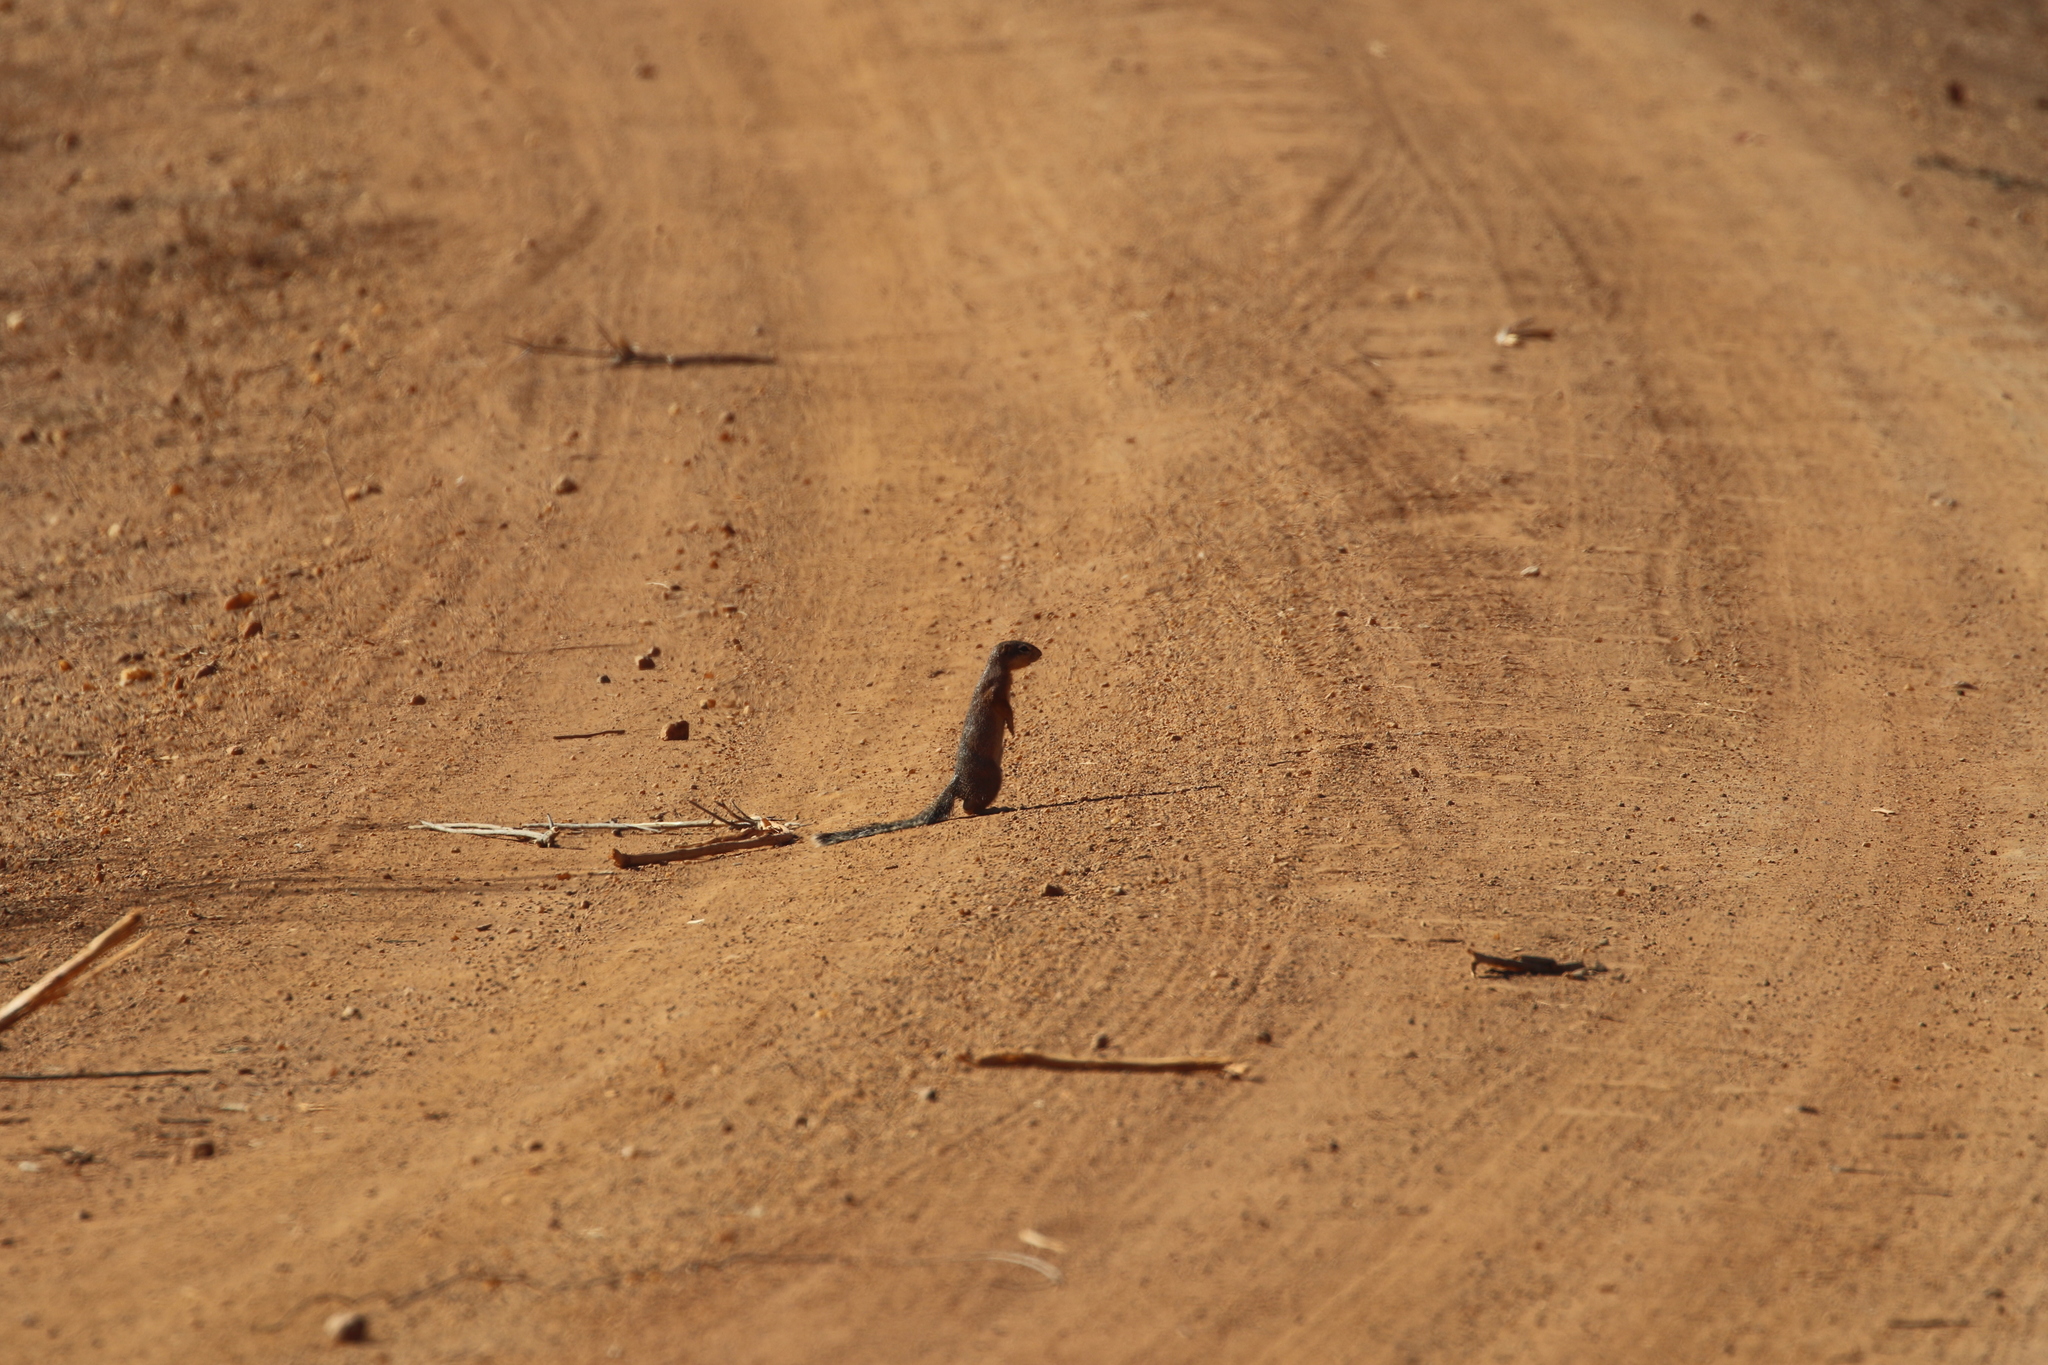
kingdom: Animalia
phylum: Chordata
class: Mammalia
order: Rodentia
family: Sciuridae
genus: Xerus
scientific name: Xerus rutilus
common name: Unstriped ground squirrel
